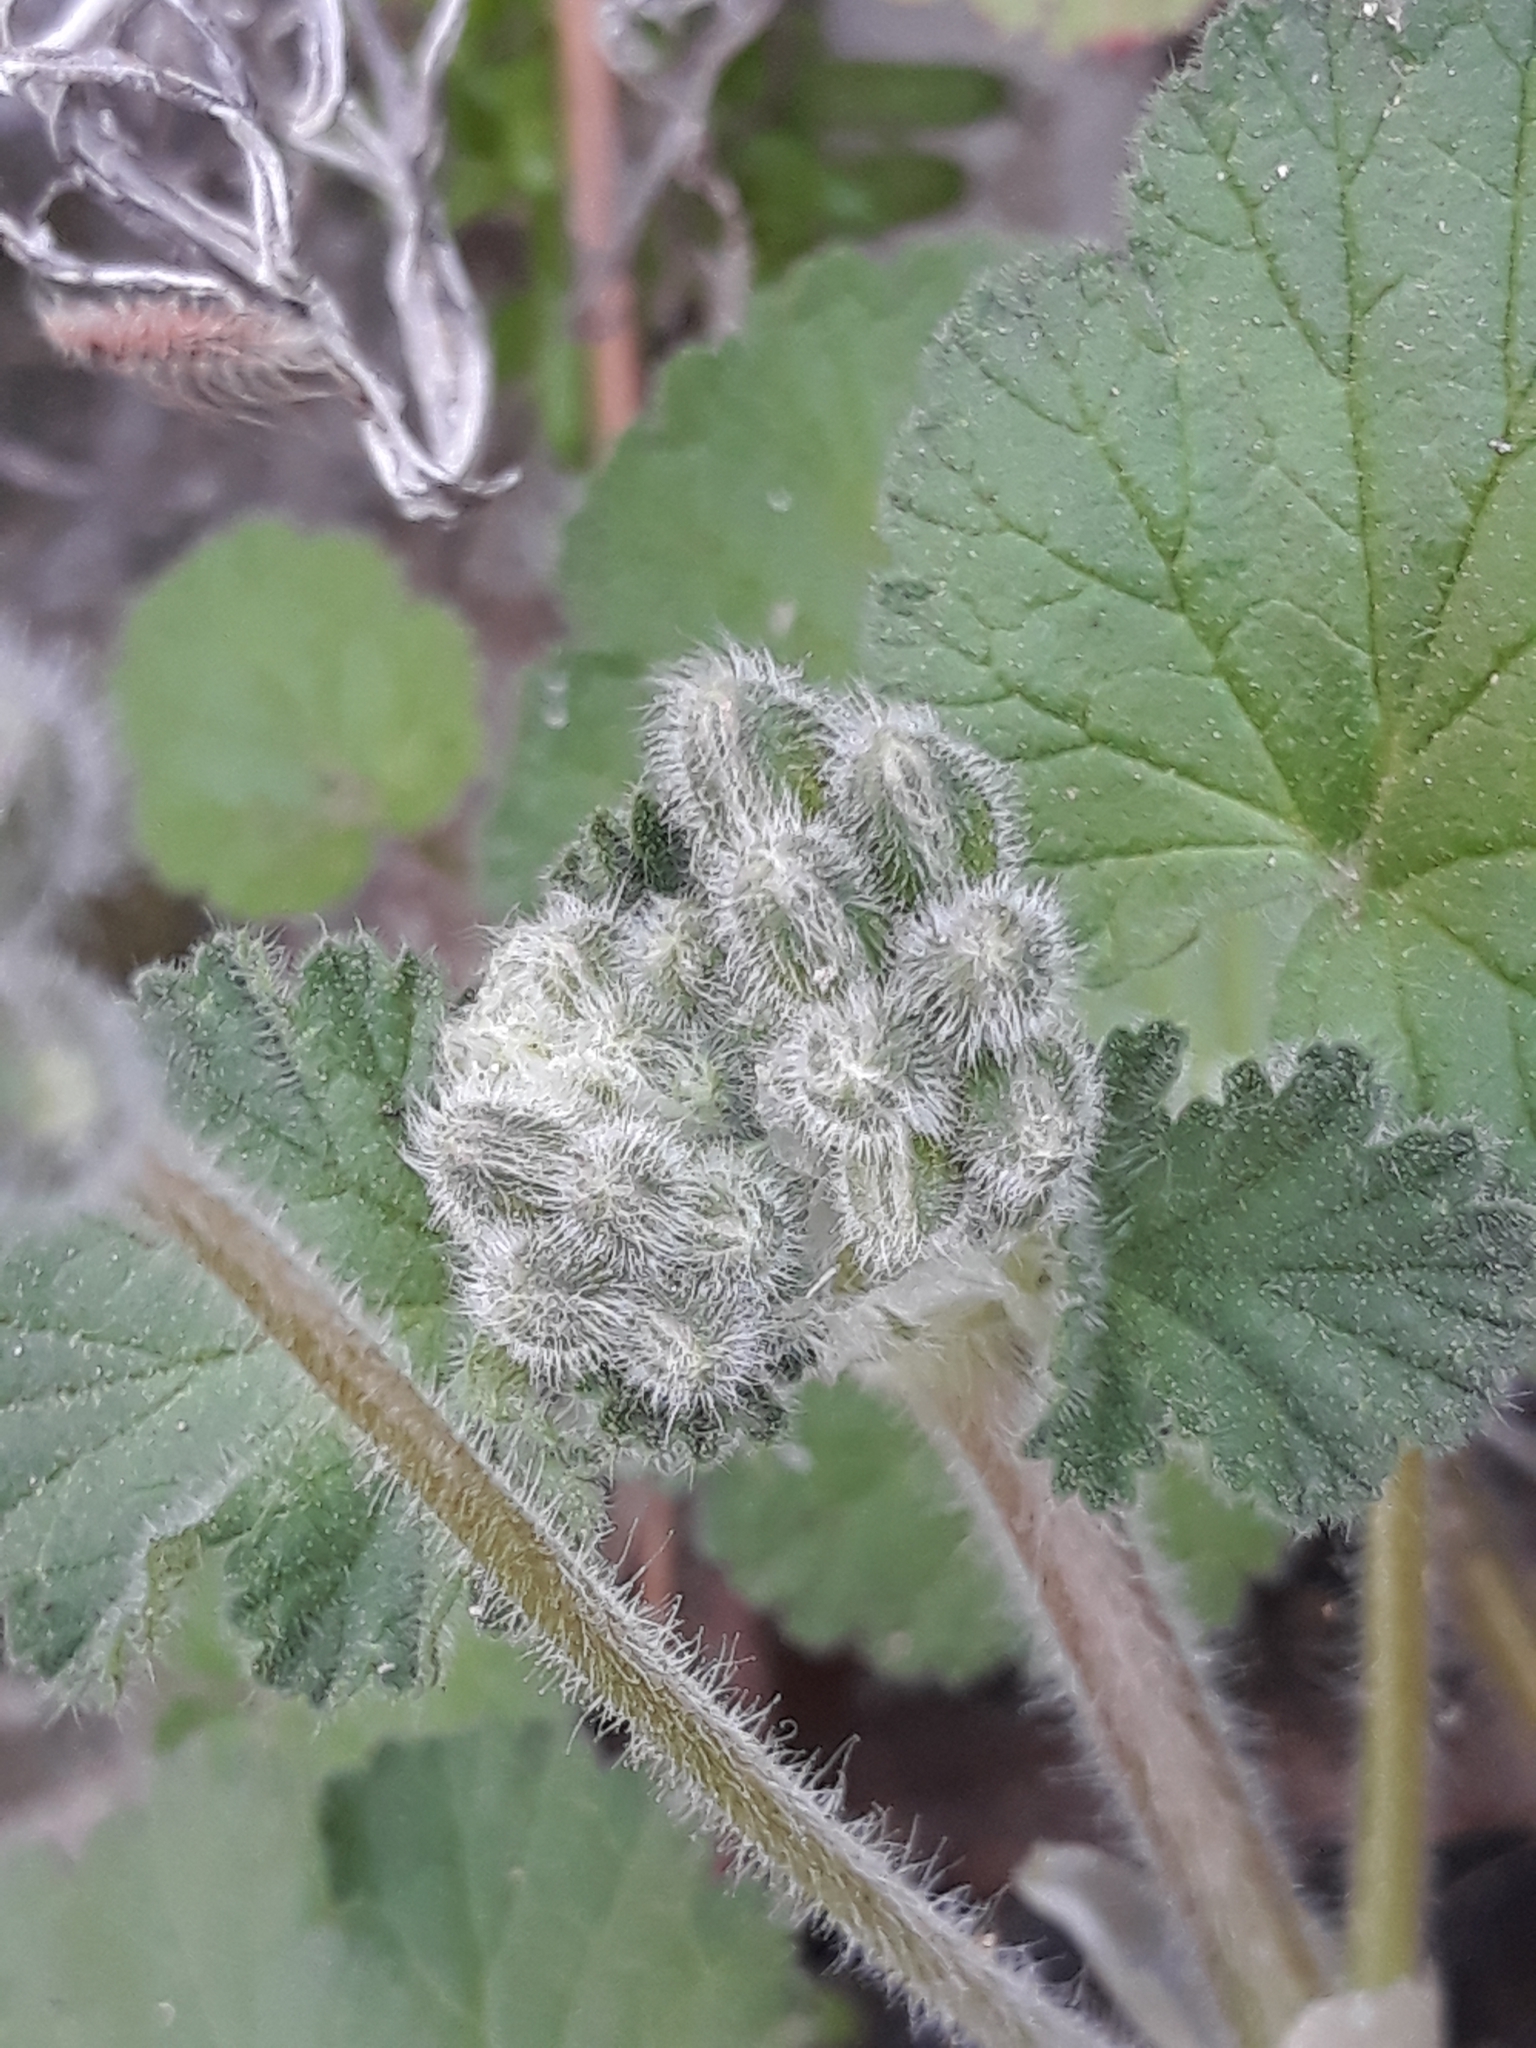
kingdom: Plantae
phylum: Tracheophyta
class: Magnoliopsida
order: Geraniales
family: Geraniaceae
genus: Erodium
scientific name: Erodium trifolium
